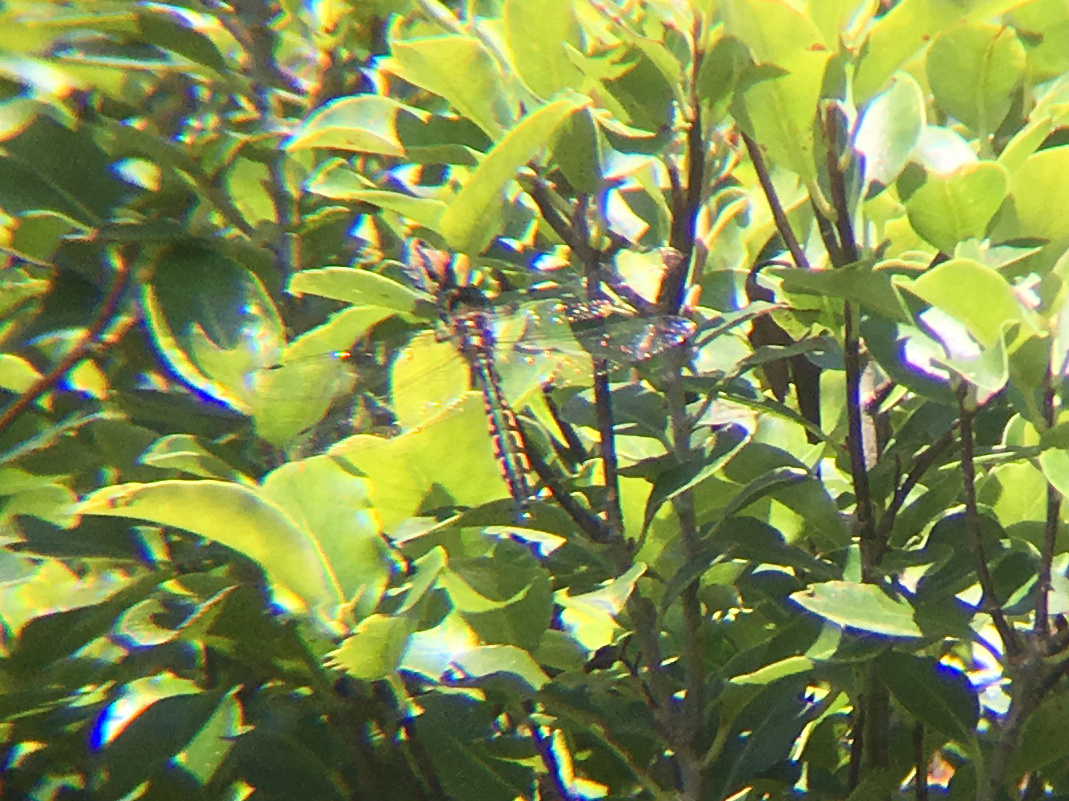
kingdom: Animalia
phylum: Arthropoda
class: Insecta
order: Odonata
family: Corduliidae
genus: Hemicordulia
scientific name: Hemicordulia australiae
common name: Sentry dragonfly
